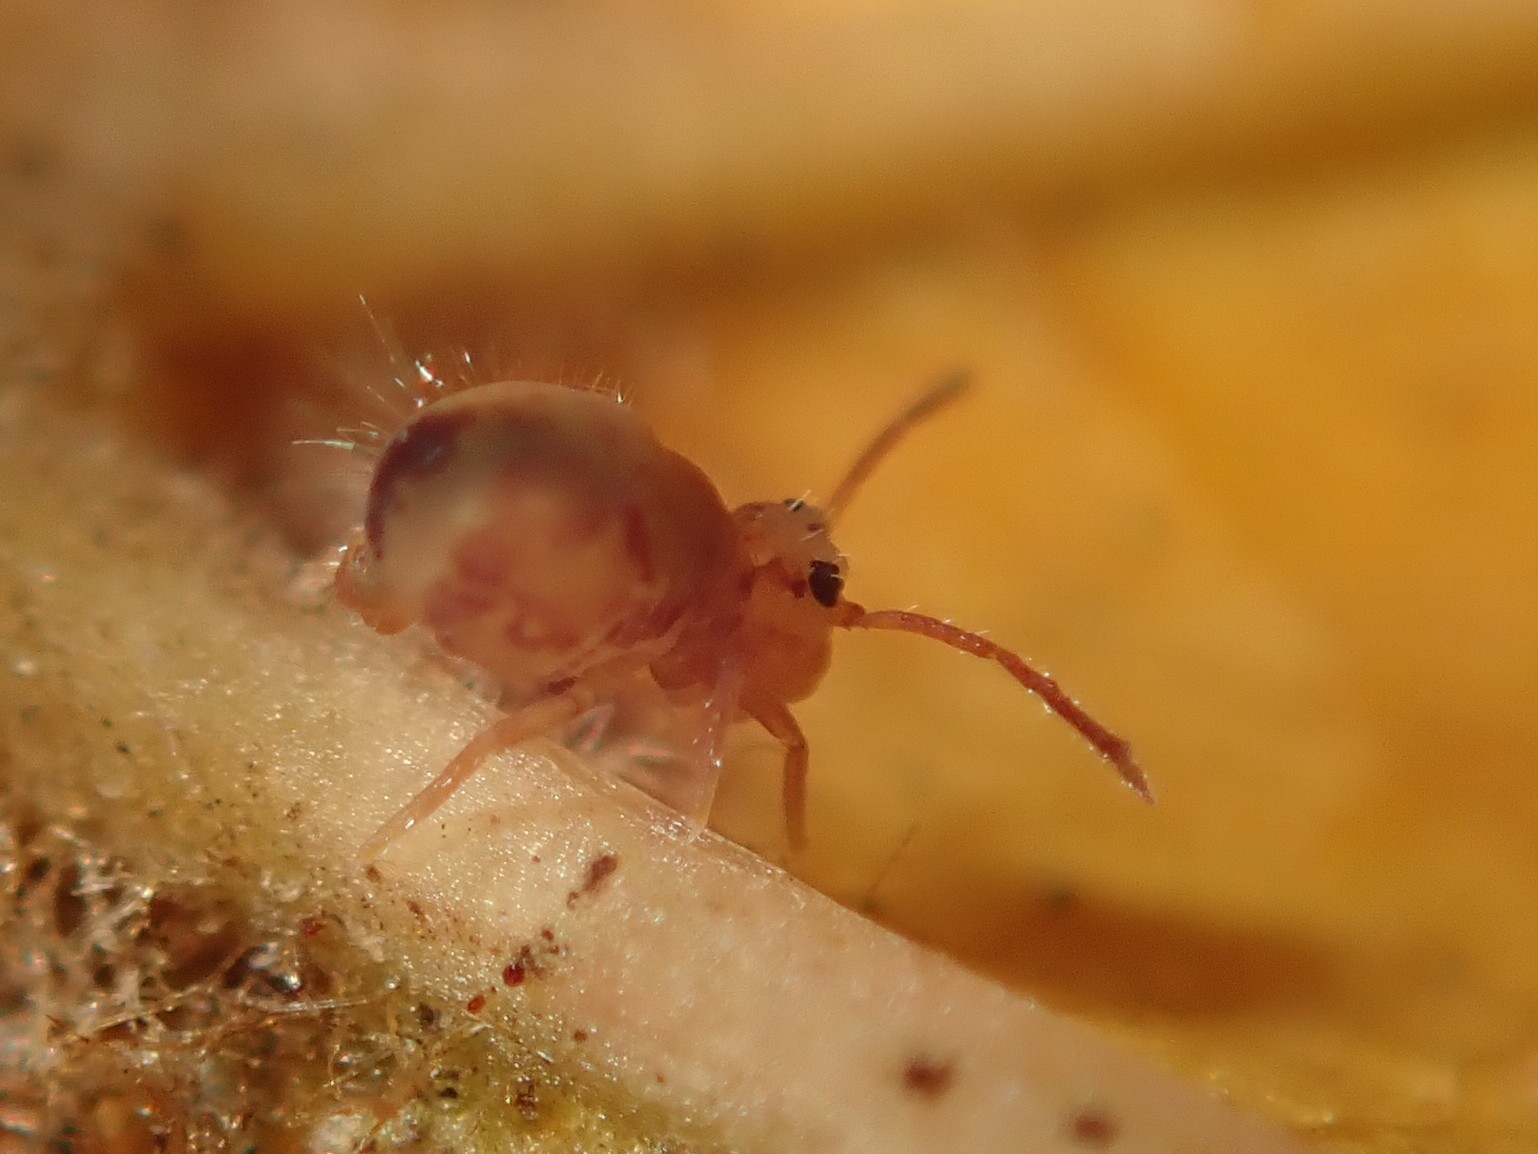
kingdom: Animalia
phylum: Arthropoda
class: Collembola
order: Symphypleona
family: Dicyrtomidae
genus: Dicyrtomina
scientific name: Dicyrtomina ornata
